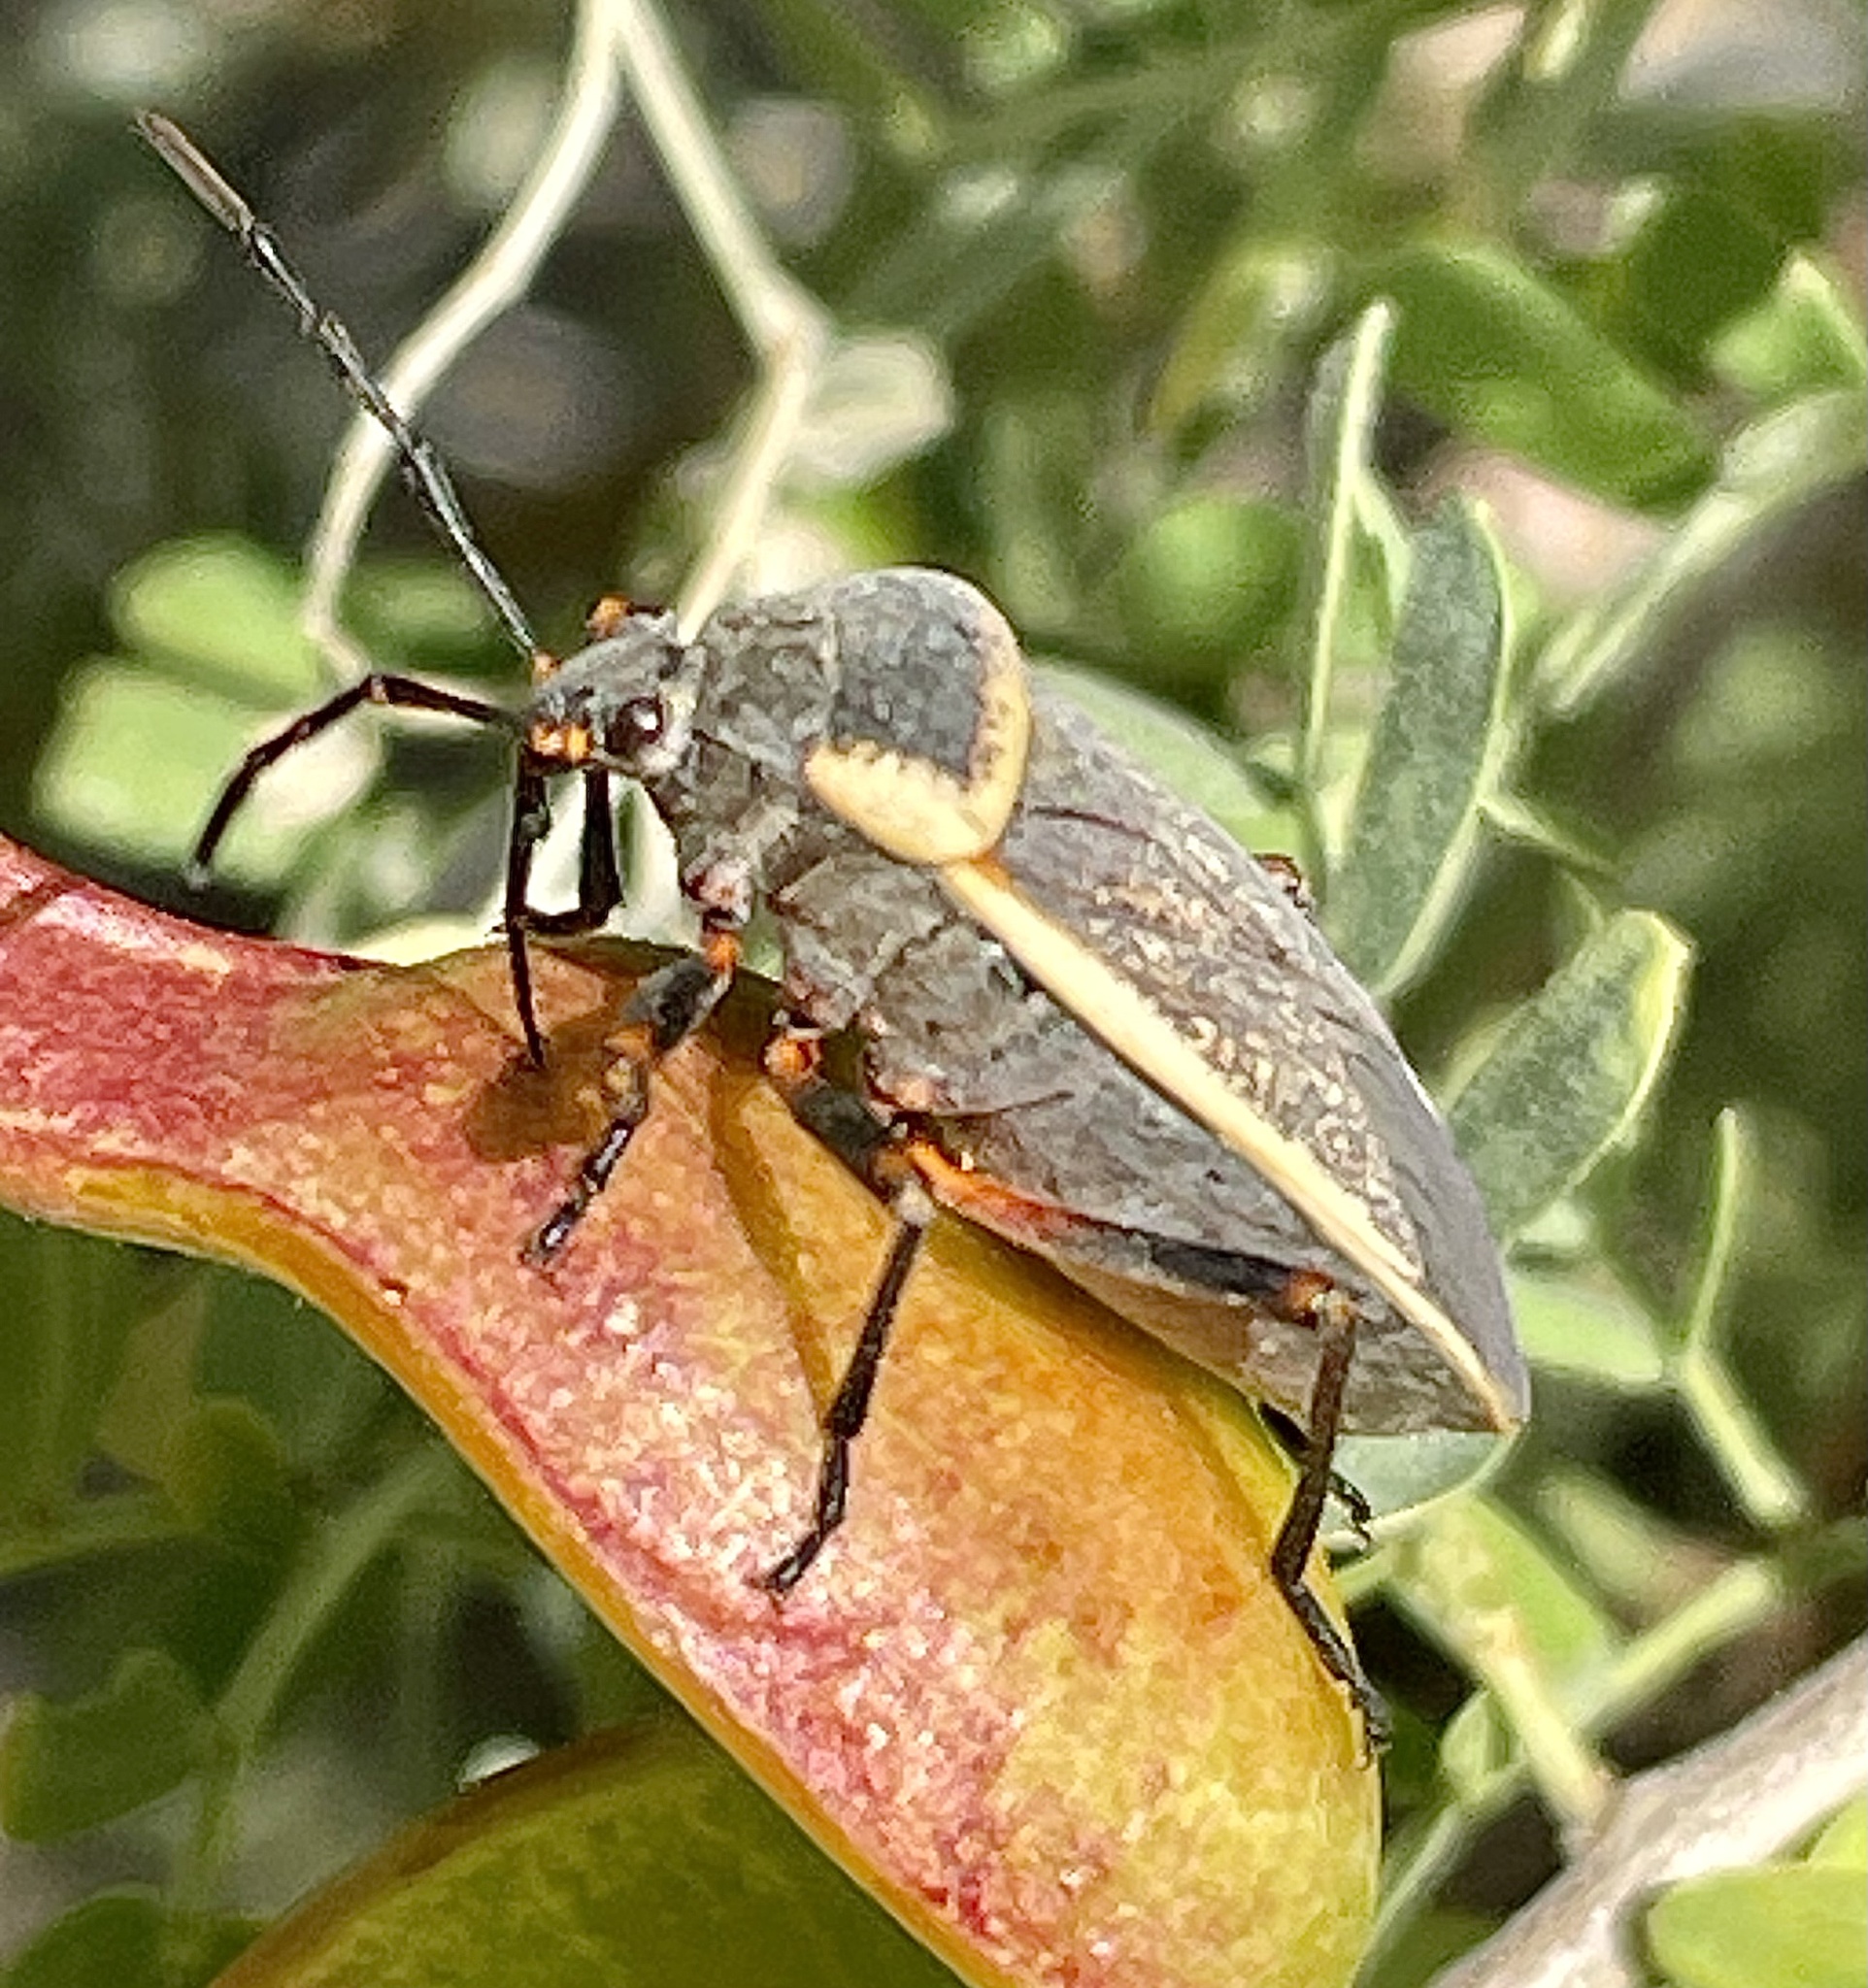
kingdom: Animalia
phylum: Arthropoda
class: Insecta
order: Hemiptera
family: Largidae
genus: Largus
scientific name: Largus californicus
